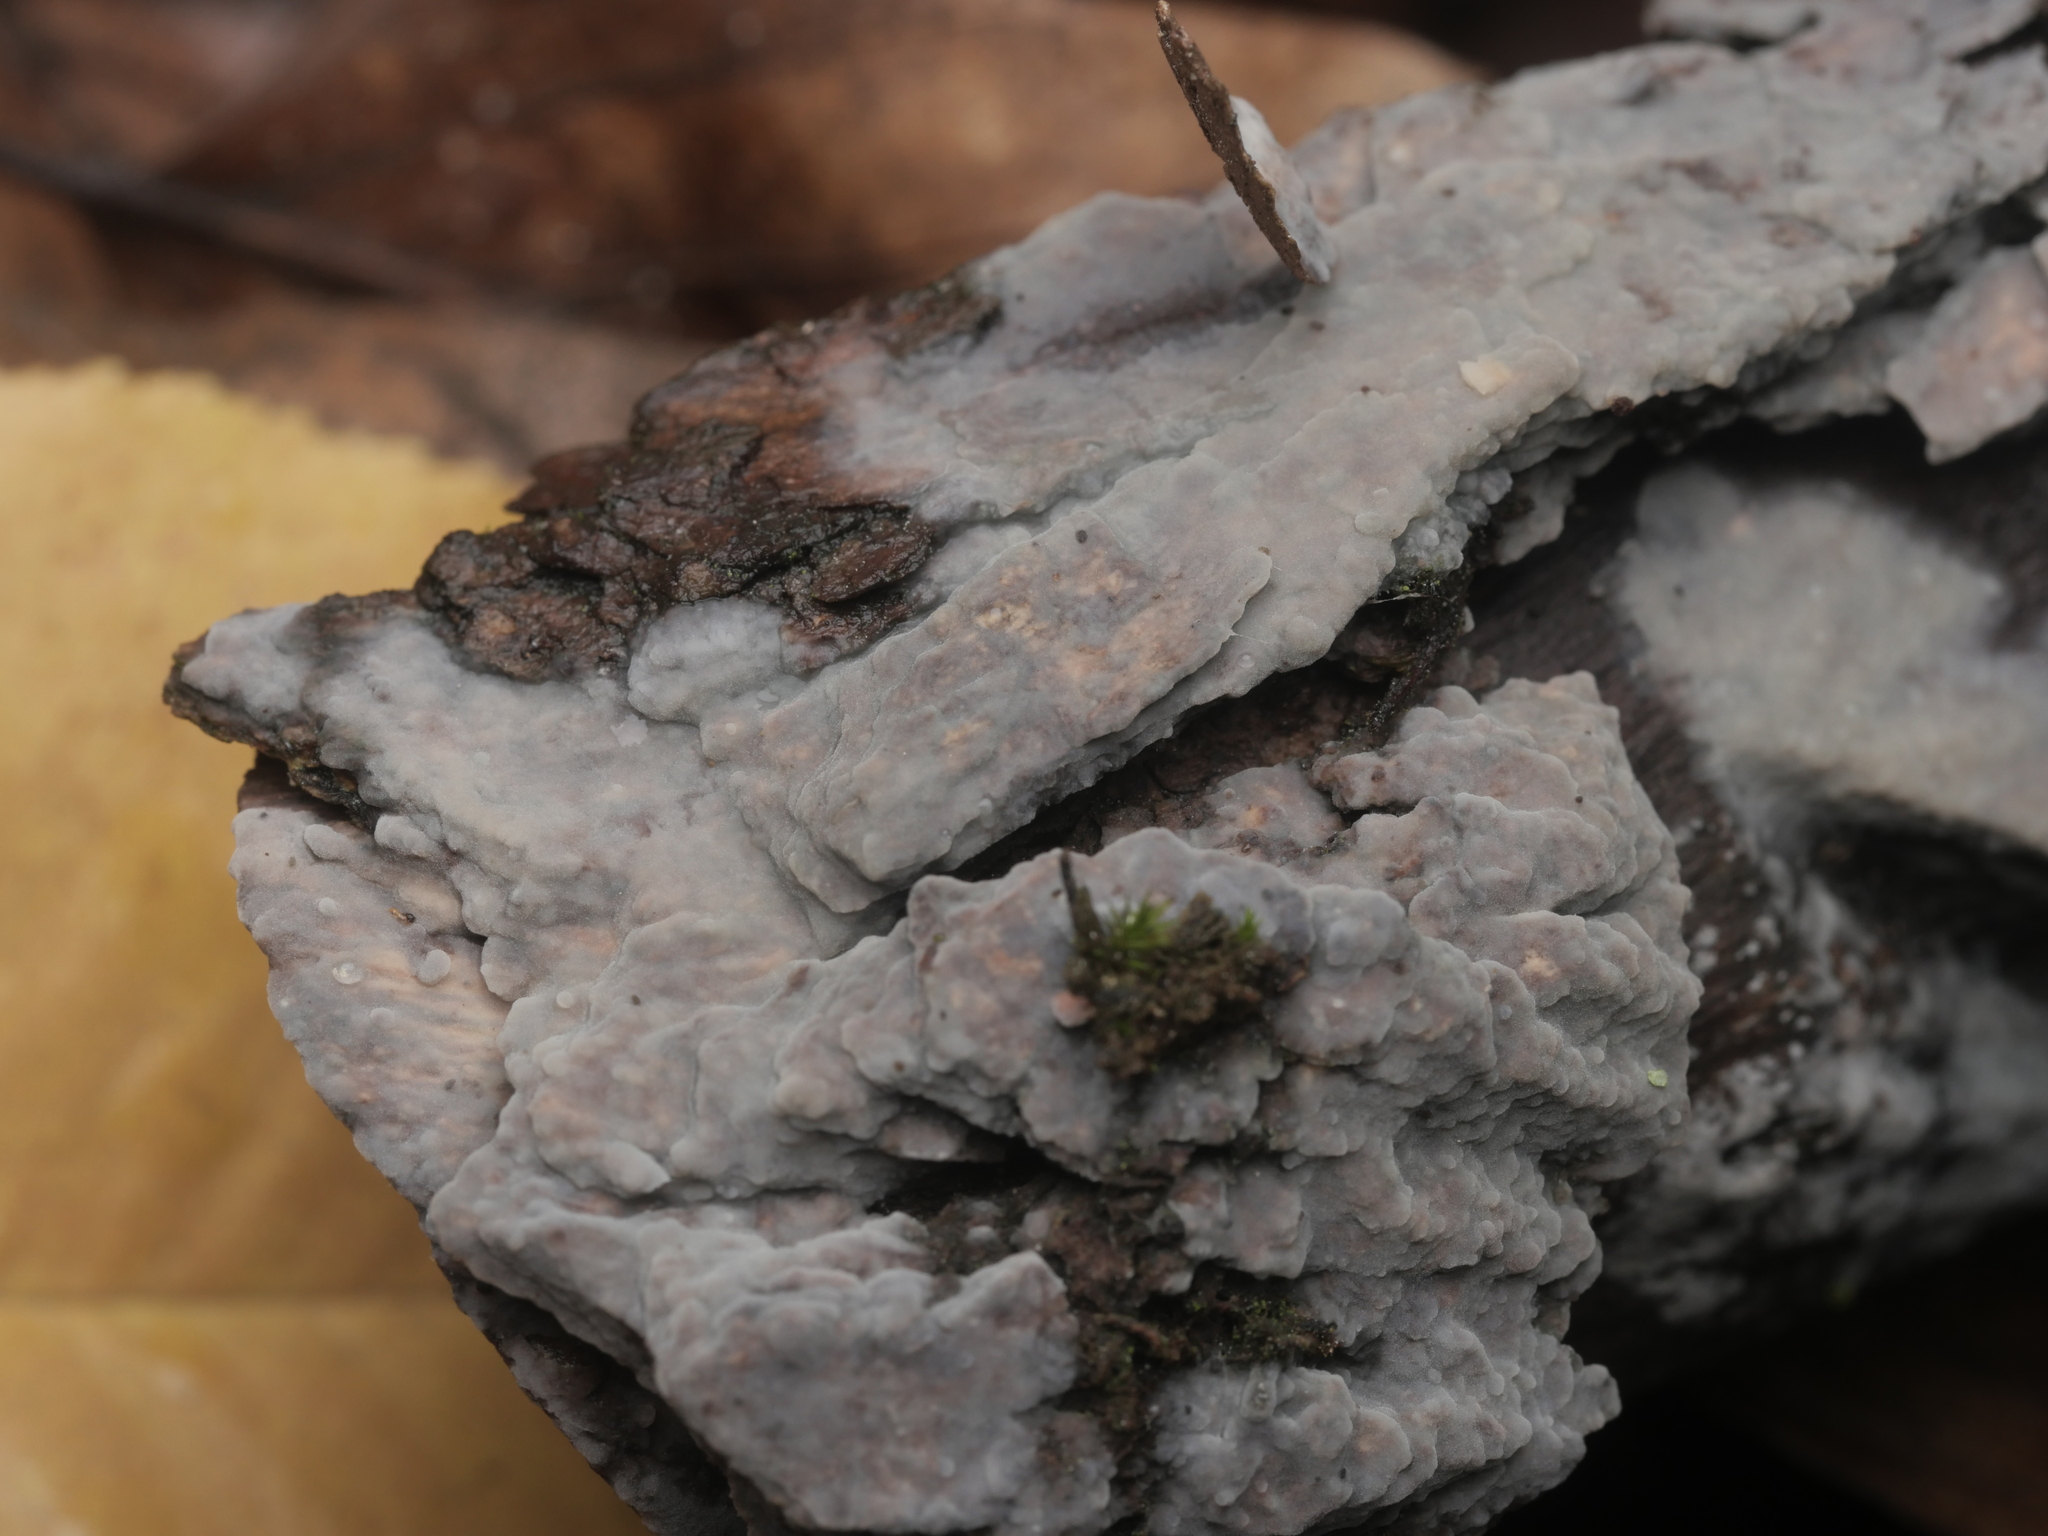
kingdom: Fungi
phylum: Basidiomycota
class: Agaricomycetes
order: Russulales
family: Peniophoraceae
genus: Peniophora
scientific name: Peniophora quercina
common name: Oak crust
